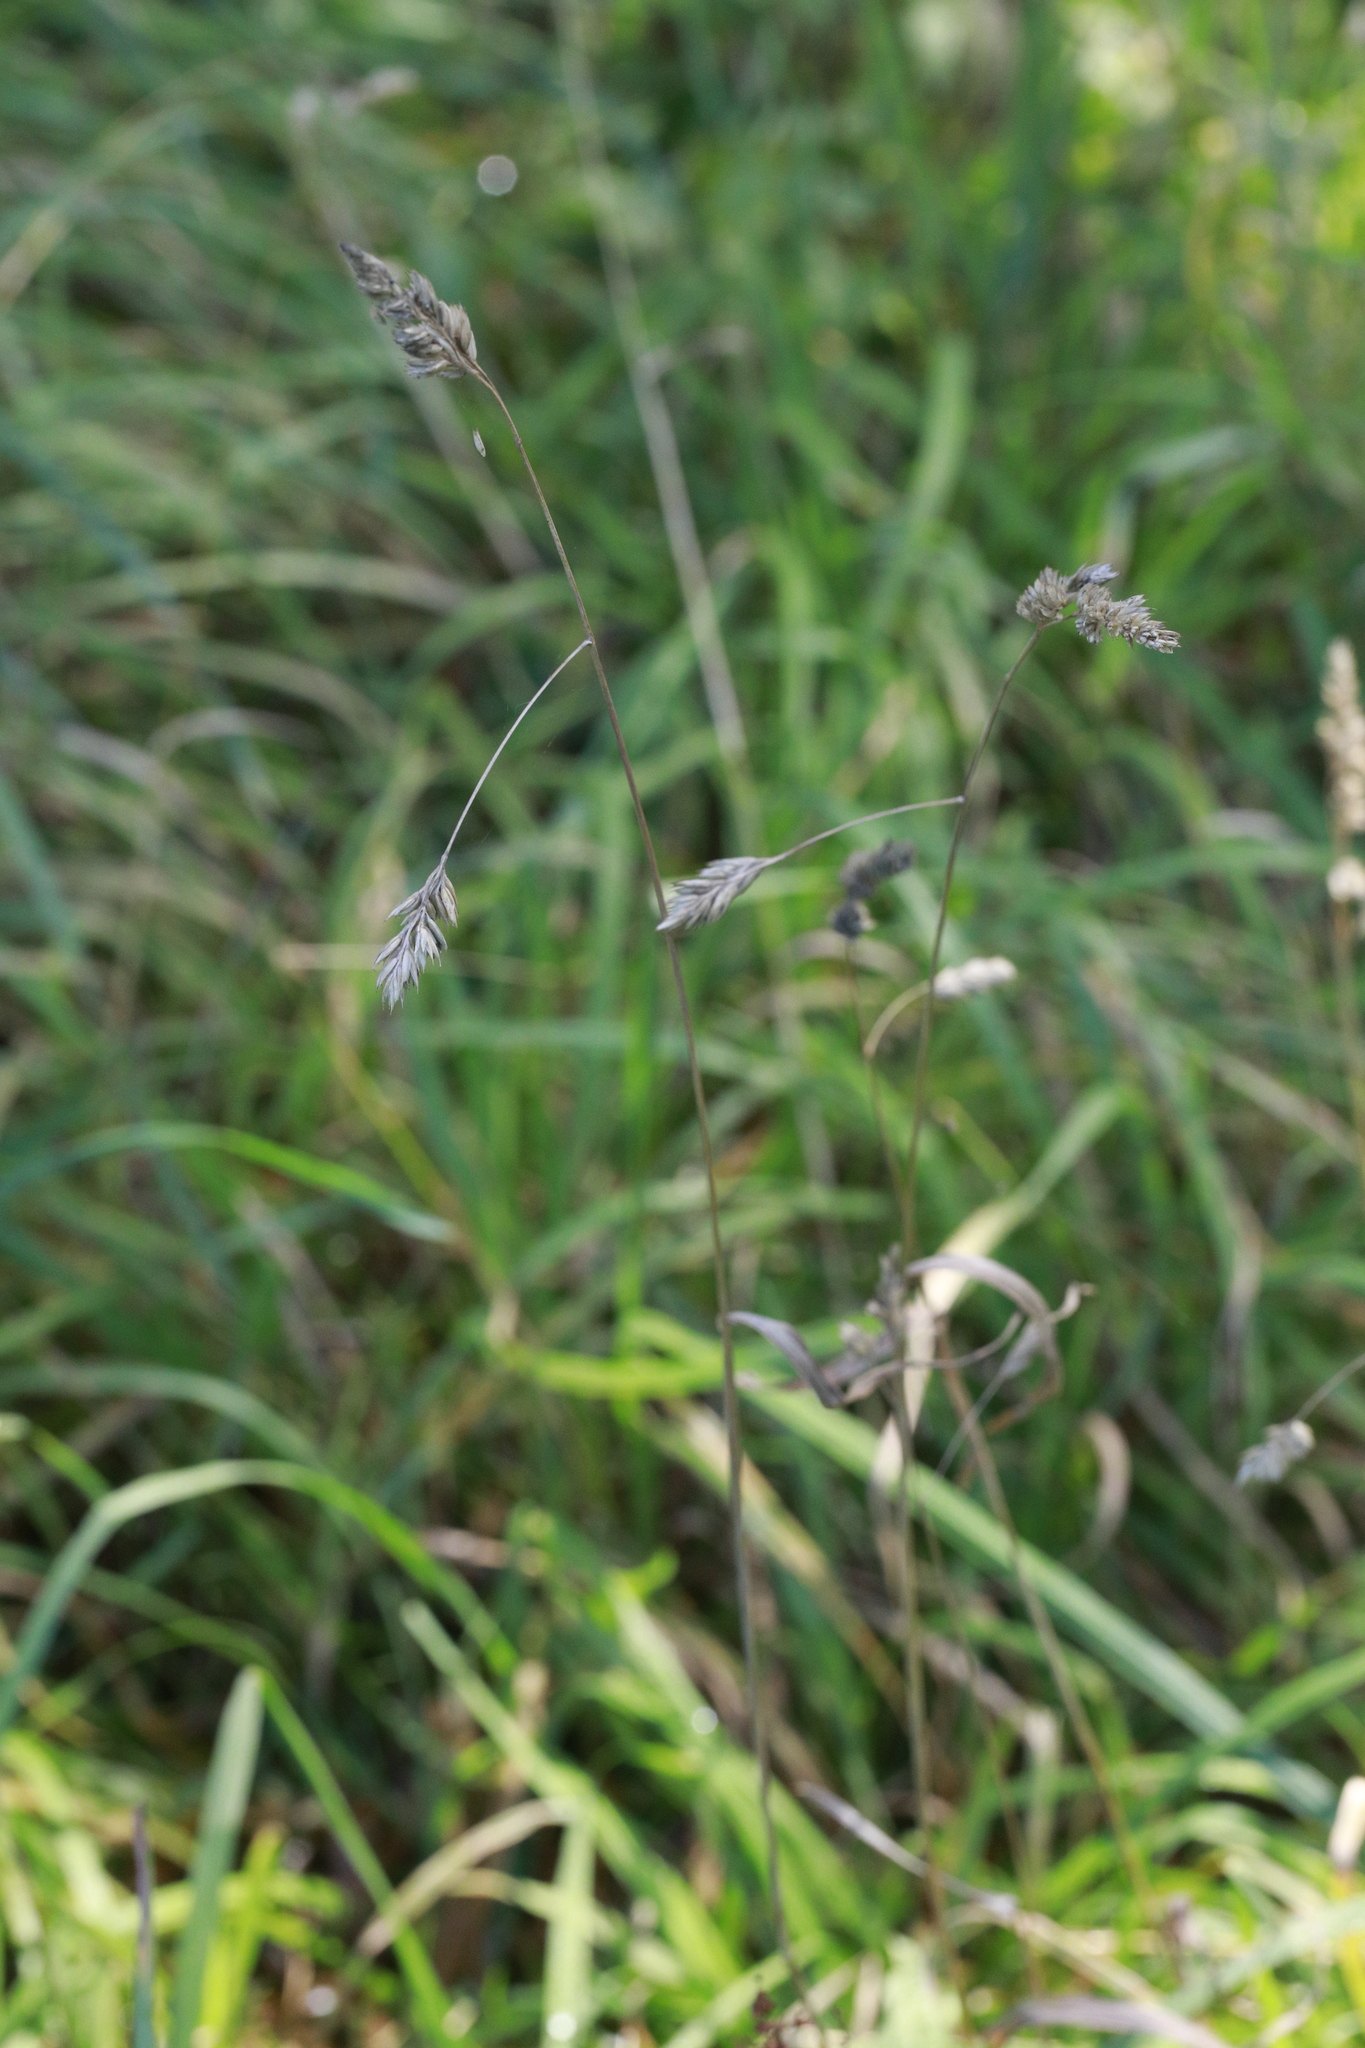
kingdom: Plantae
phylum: Tracheophyta
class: Liliopsida
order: Poales
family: Poaceae
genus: Dactylis
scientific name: Dactylis glomerata
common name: Orchardgrass
